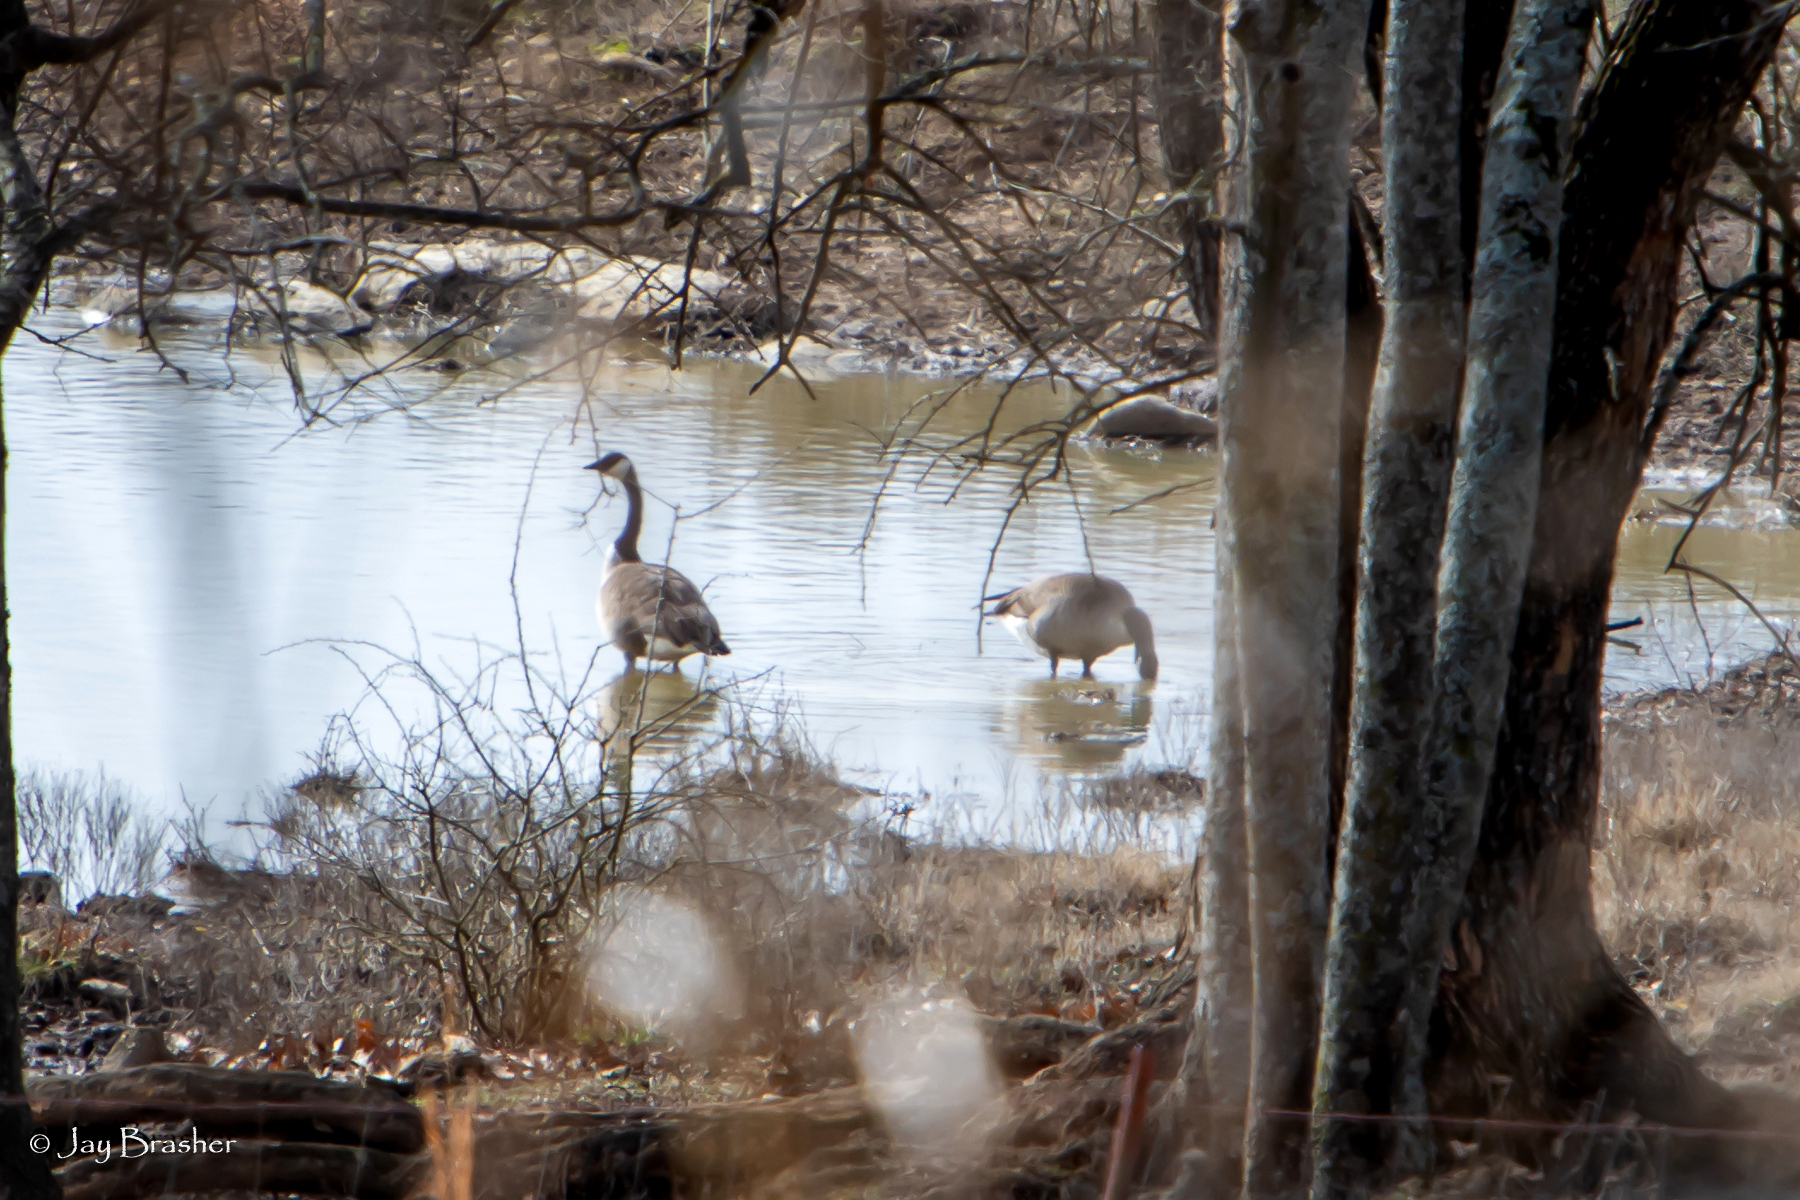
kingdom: Animalia
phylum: Chordata
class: Aves
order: Anseriformes
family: Anatidae
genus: Branta
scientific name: Branta canadensis
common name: Canada goose
